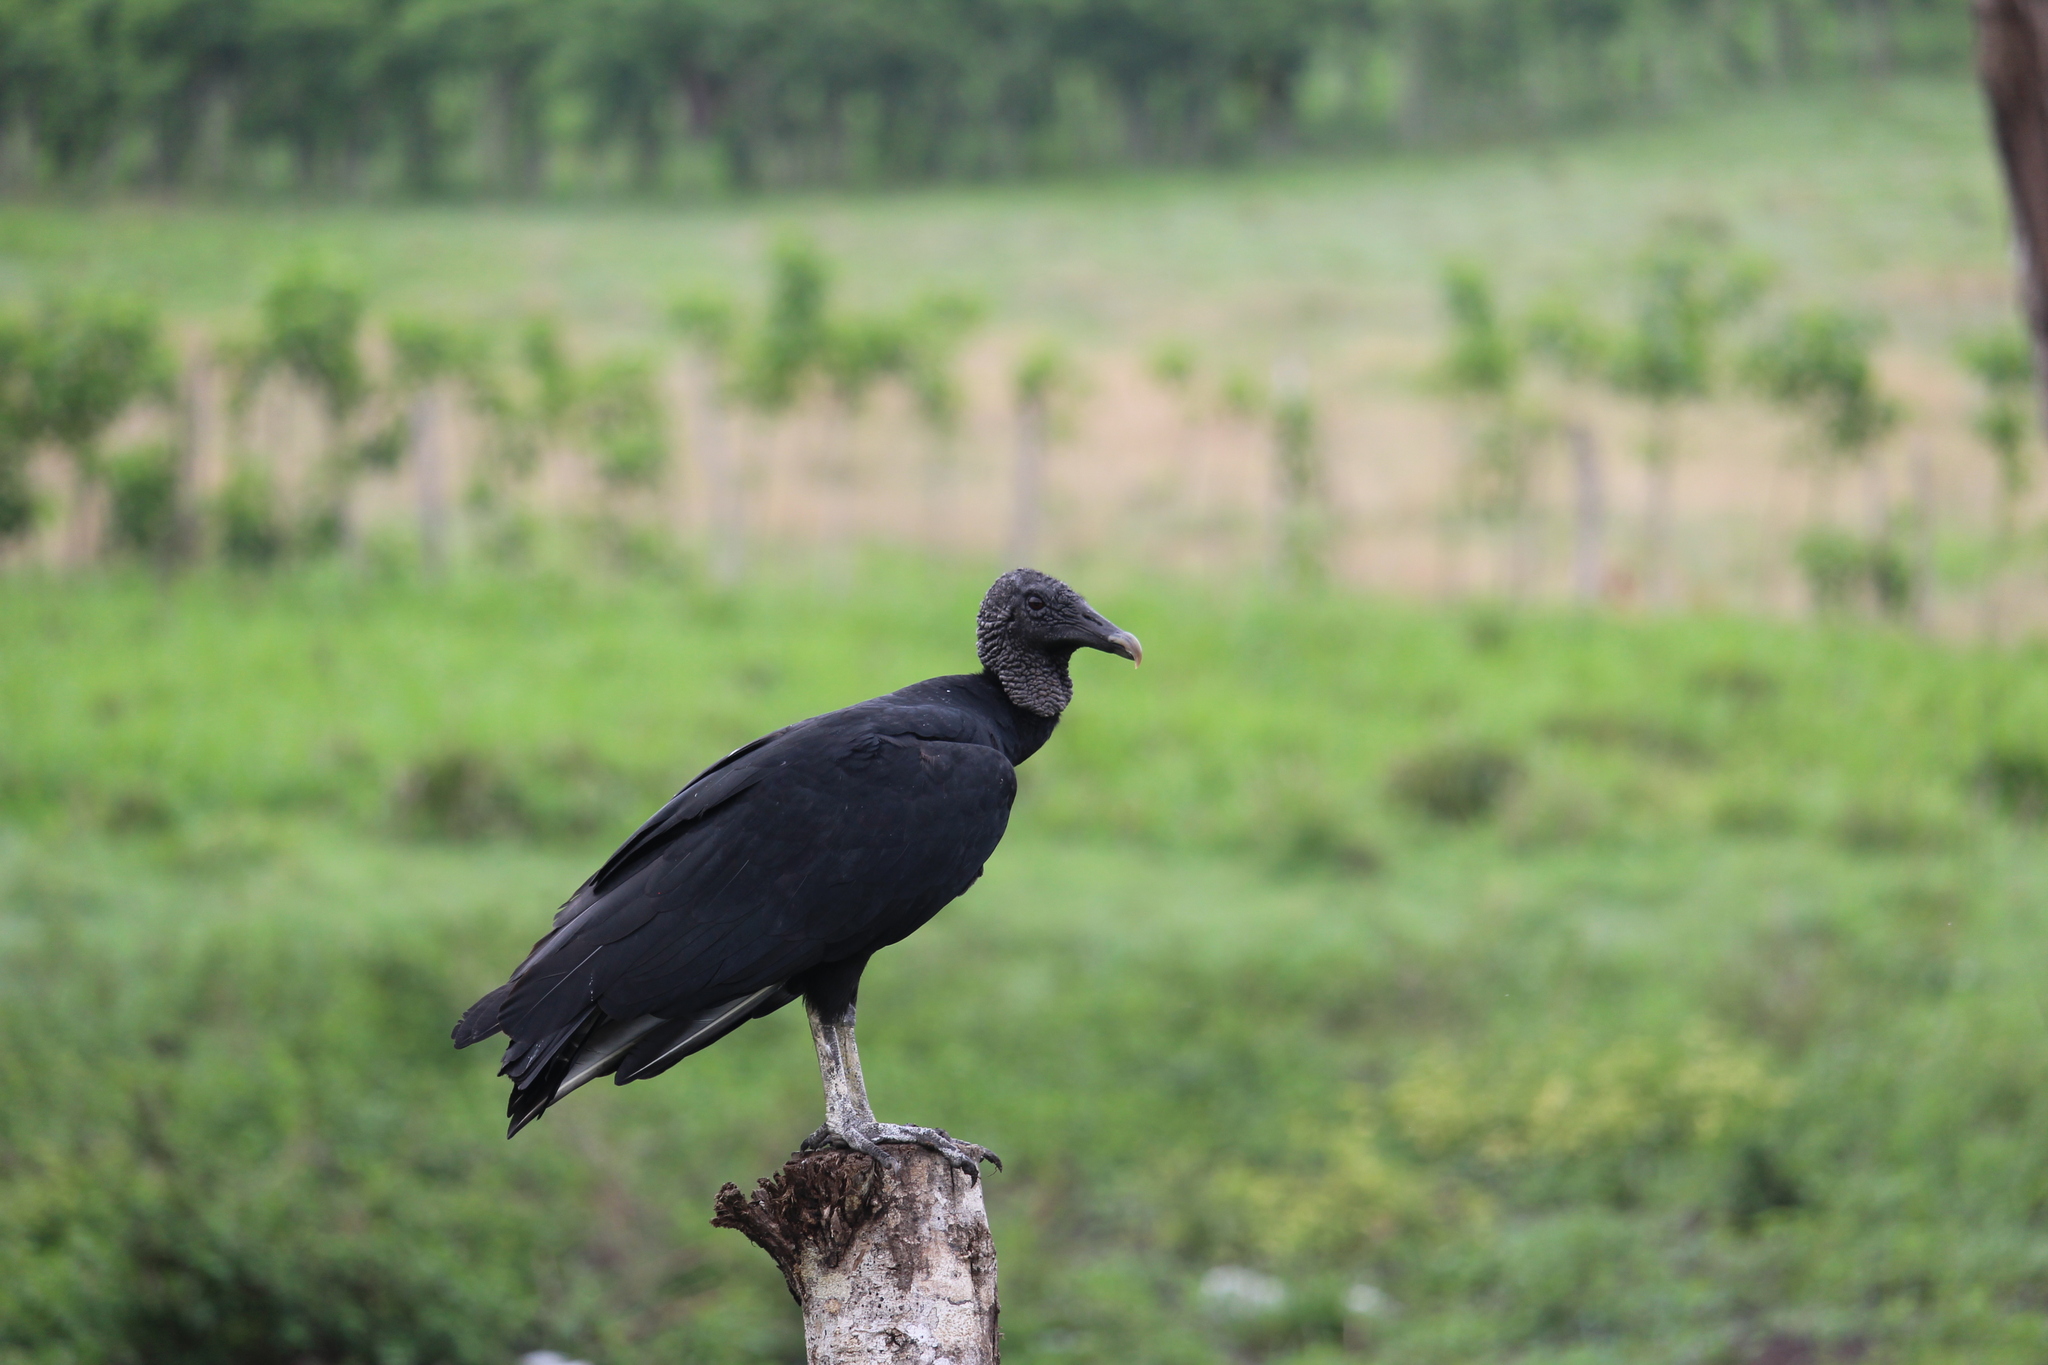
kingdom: Animalia
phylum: Chordata
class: Aves
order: Accipitriformes
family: Cathartidae
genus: Coragyps
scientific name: Coragyps atratus
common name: Black vulture
